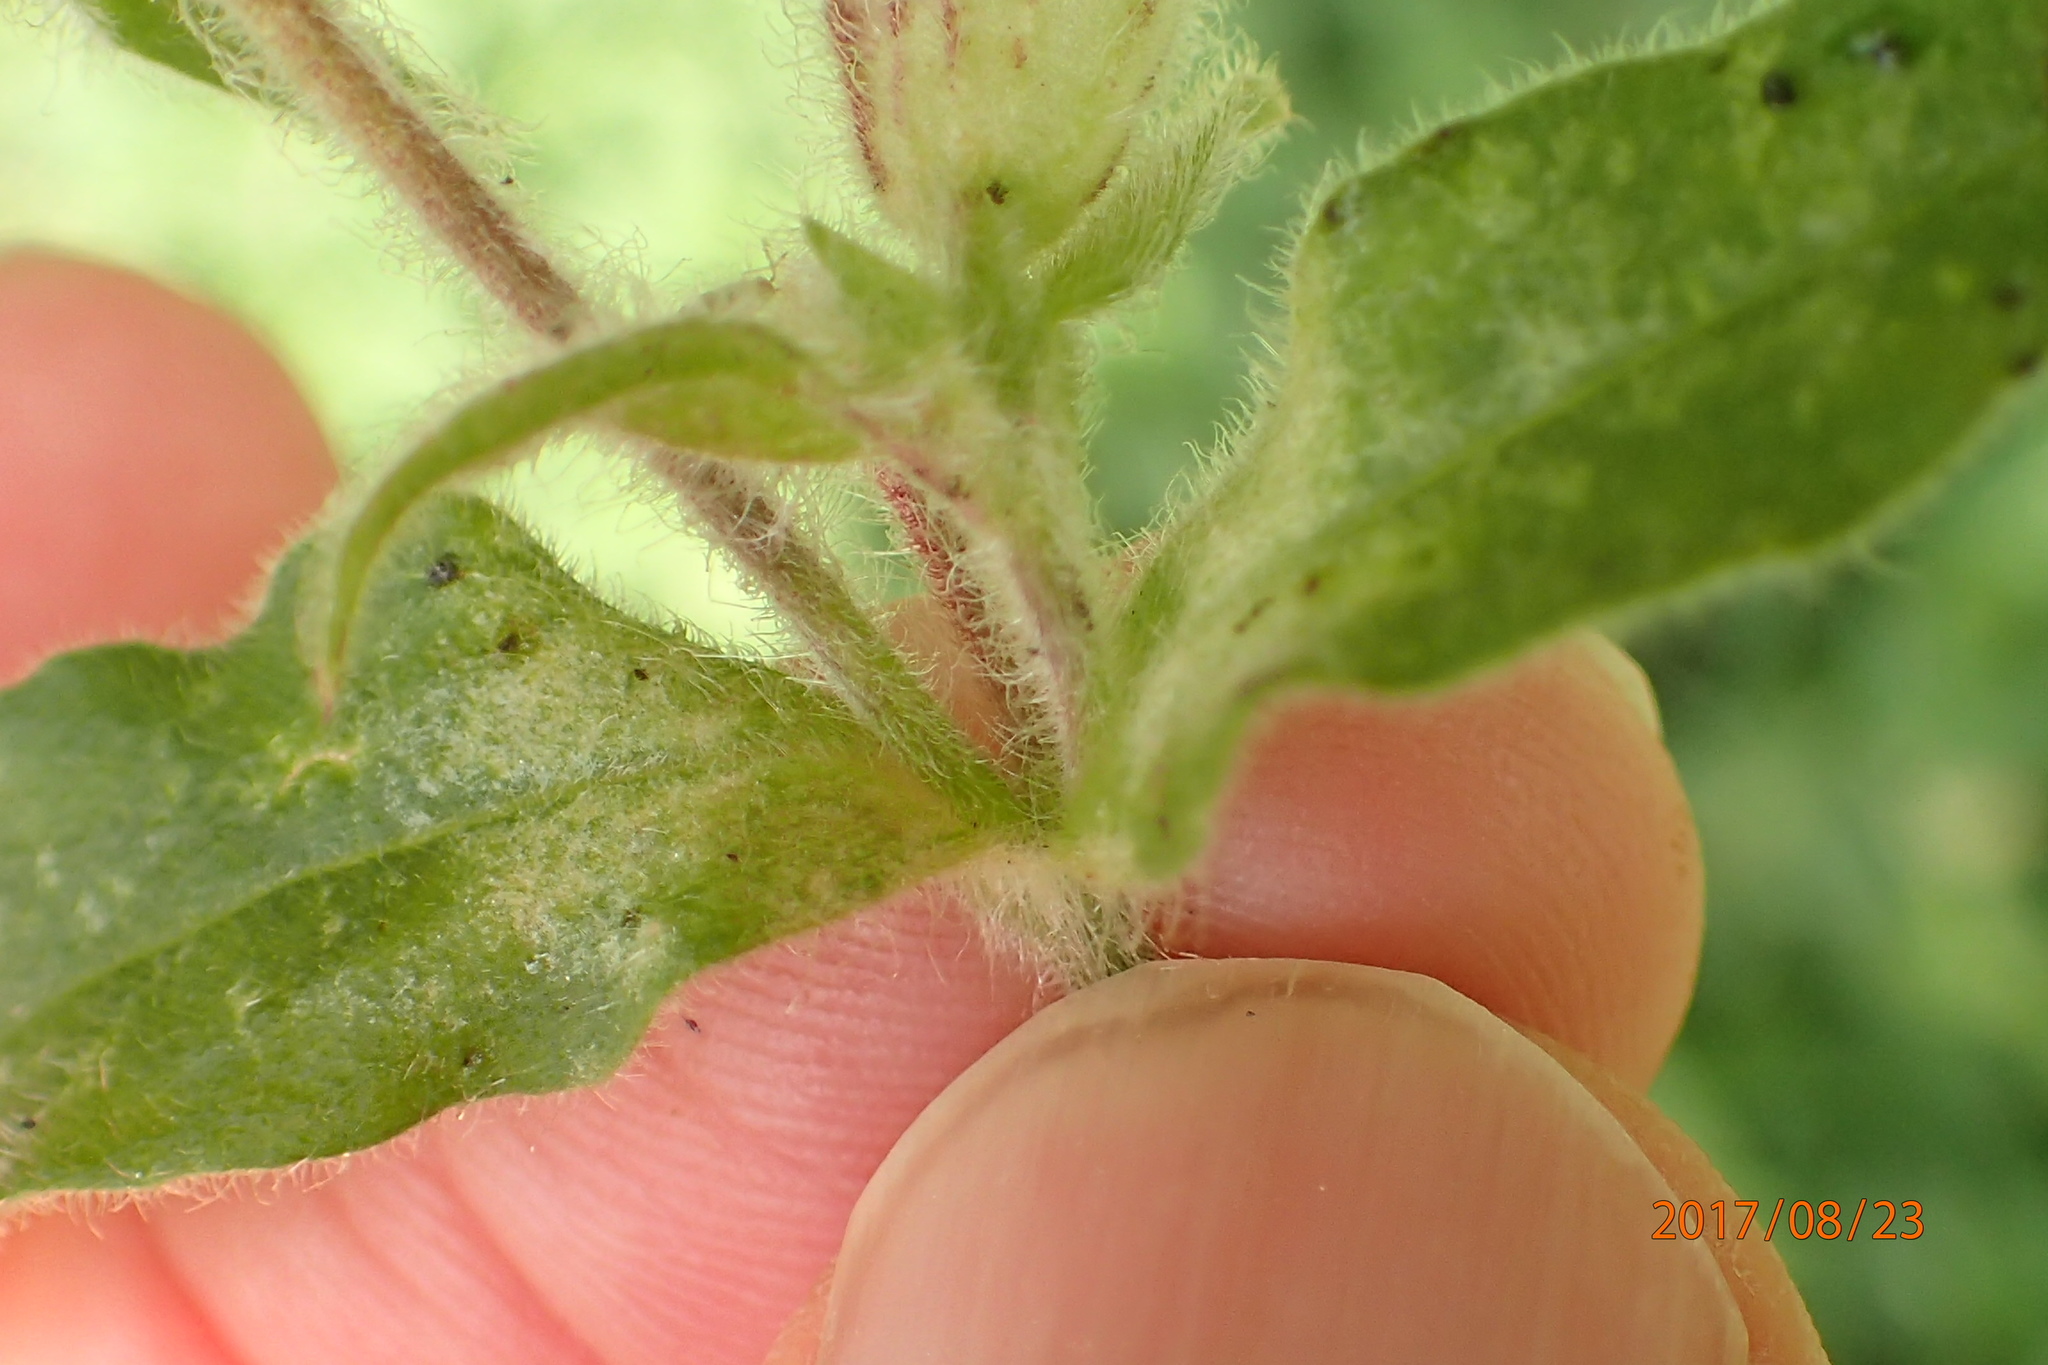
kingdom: Plantae
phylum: Tracheophyta
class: Magnoliopsida
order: Caryophyllales
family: Caryophyllaceae
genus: Silene
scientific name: Silene latifolia
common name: White campion
